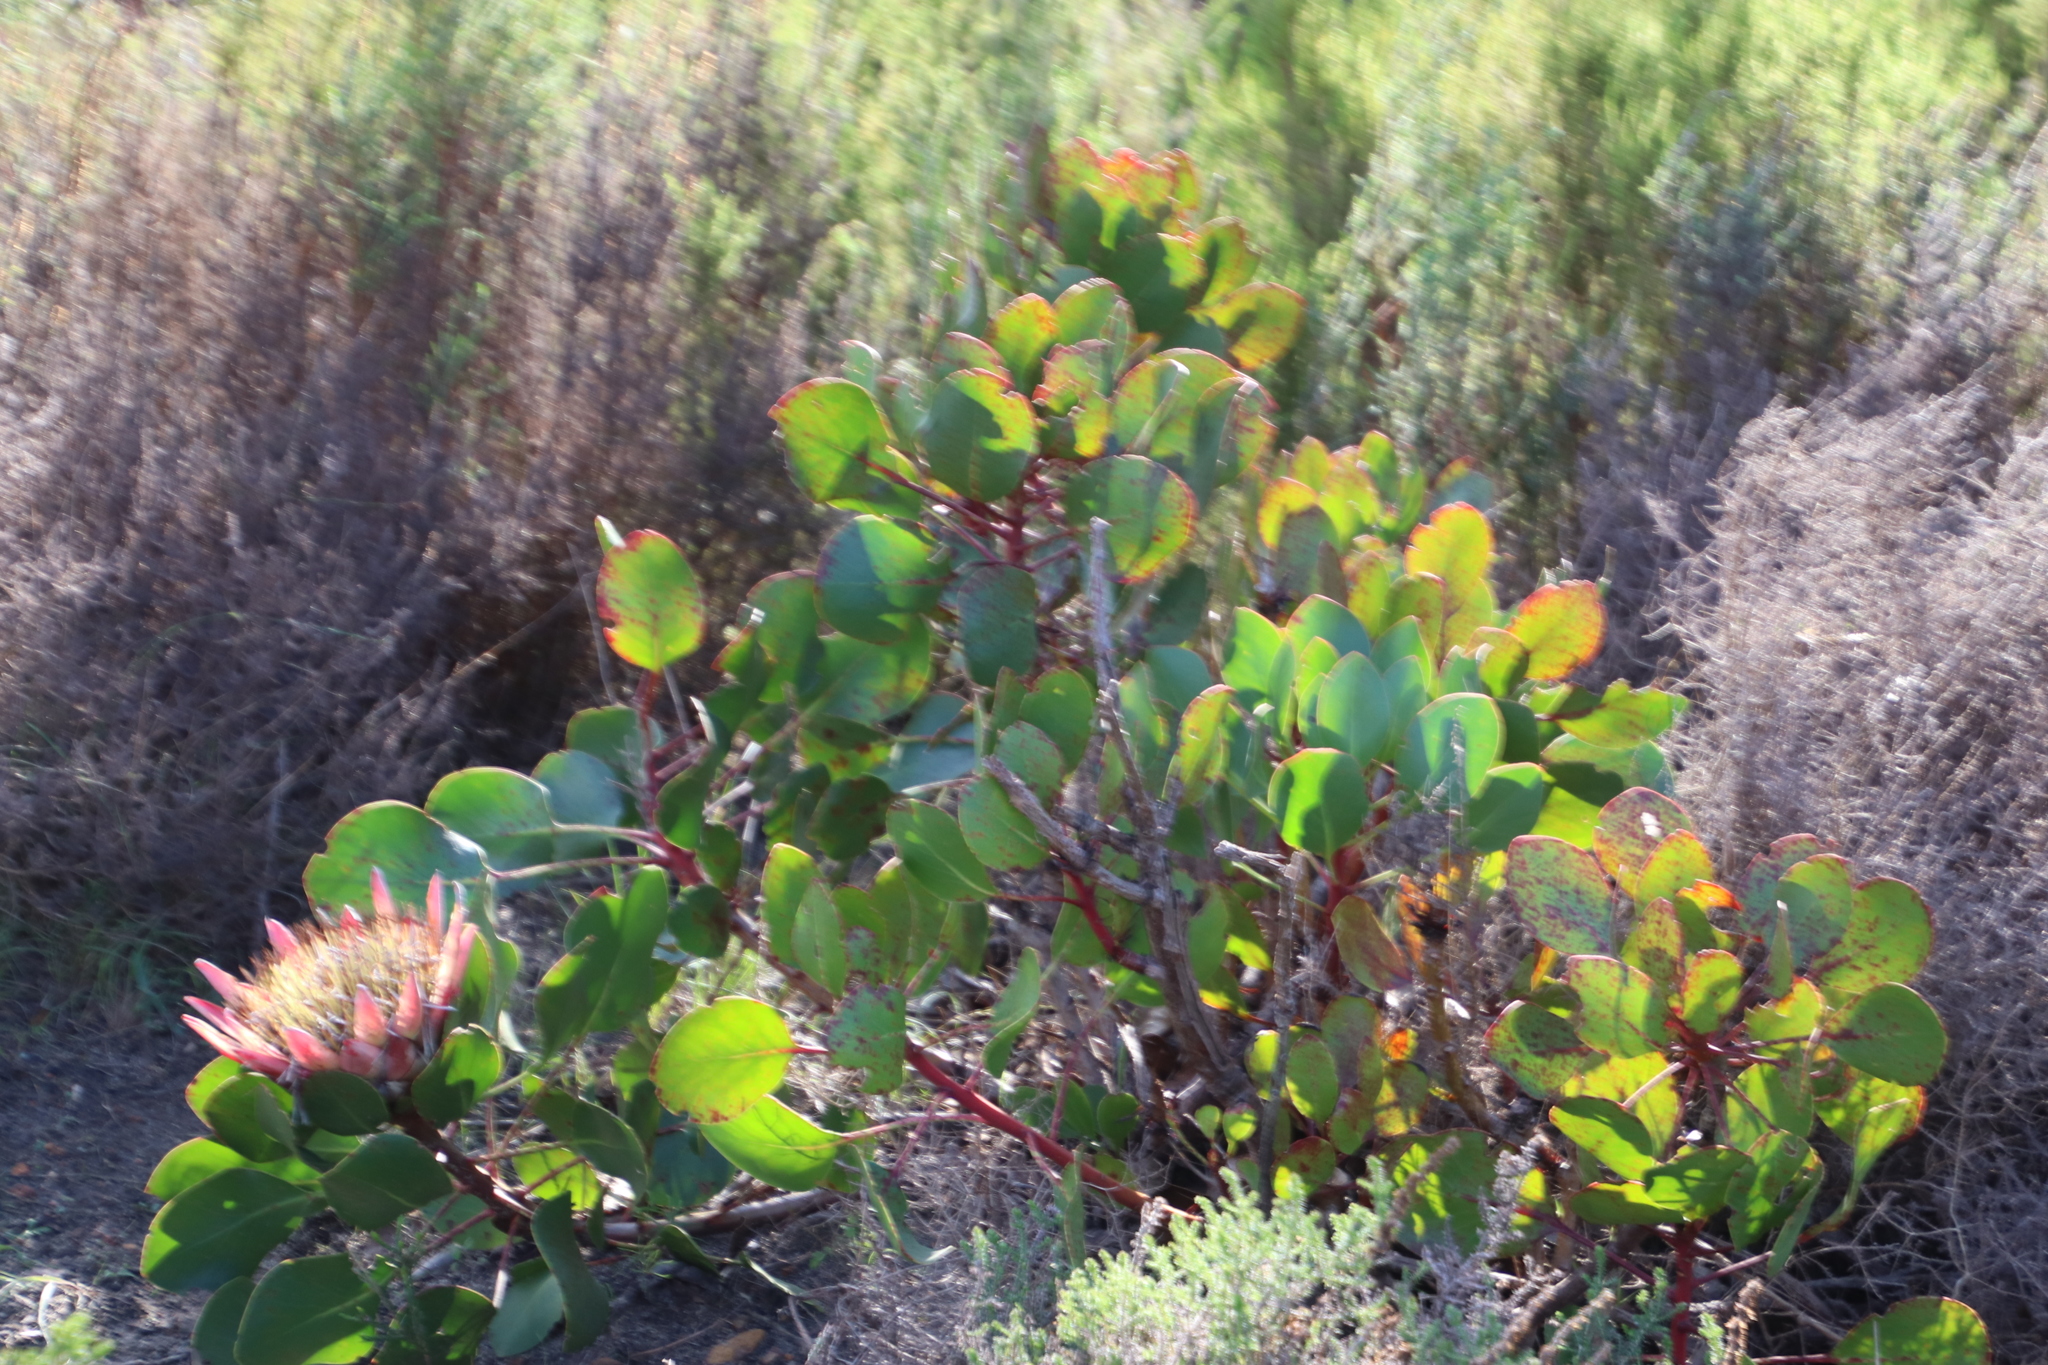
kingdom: Plantae
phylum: Tracheophyta
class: Magnoliopsida
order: Proteales
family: Proteaceae
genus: Protea
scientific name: Protea cynaroides
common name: King protea
